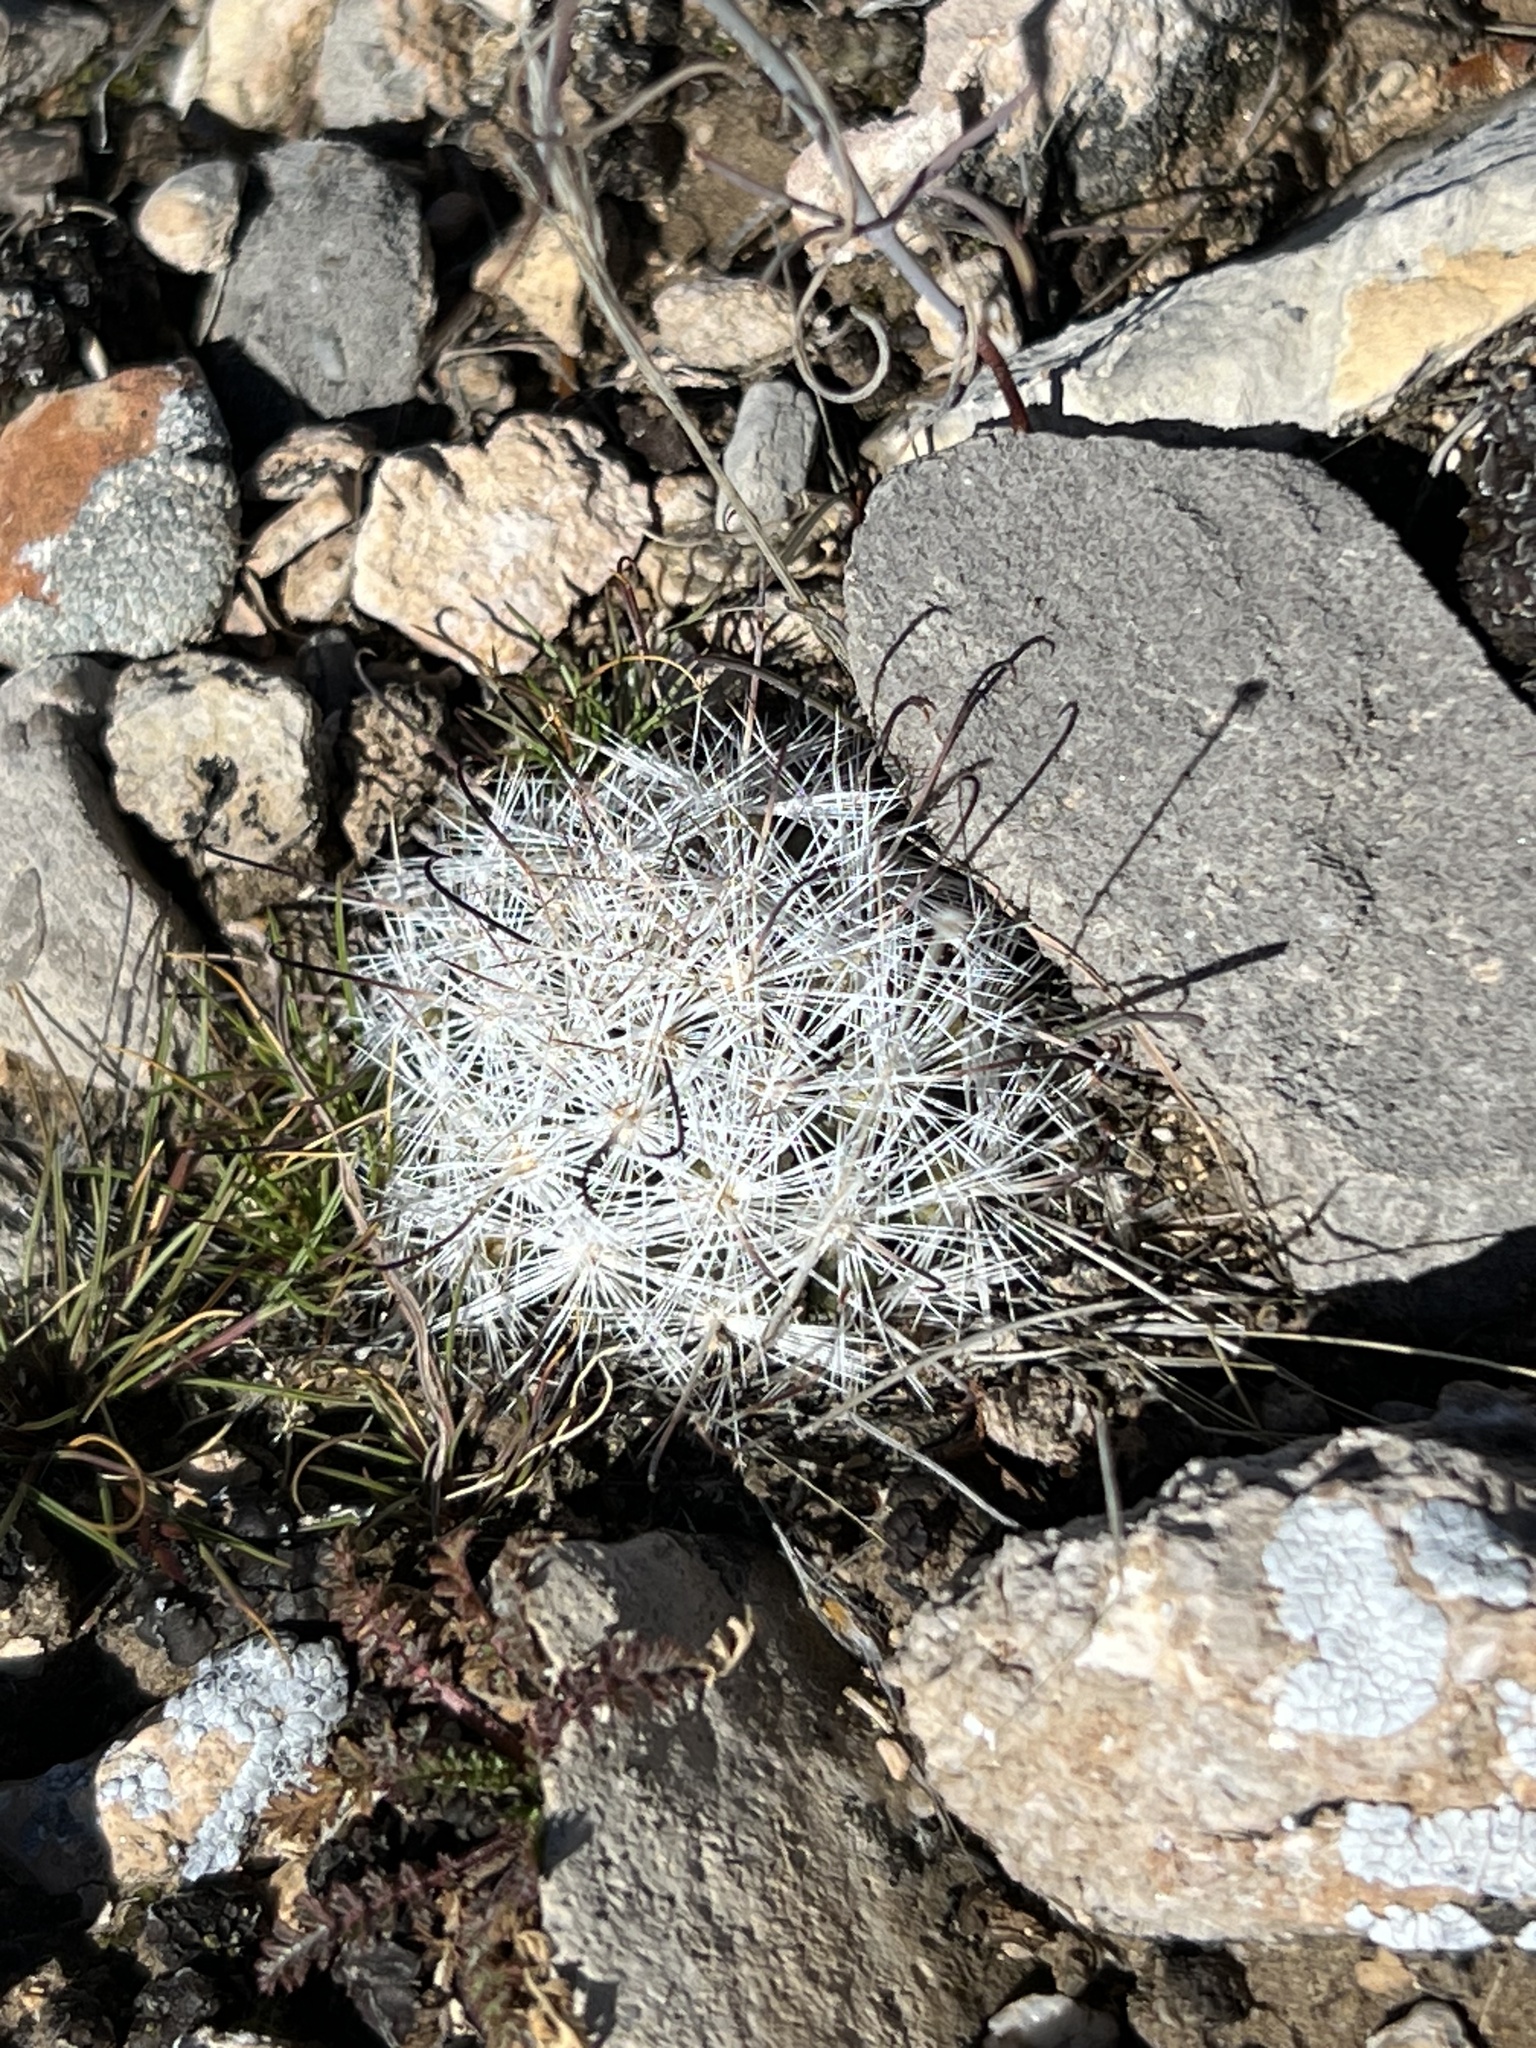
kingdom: Plantae
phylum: Tracheophyta
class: Magnoliopsida
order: Caryophyllales
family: Cactaceae
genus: Cochemiea
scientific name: Cochemiea tetrancistra
